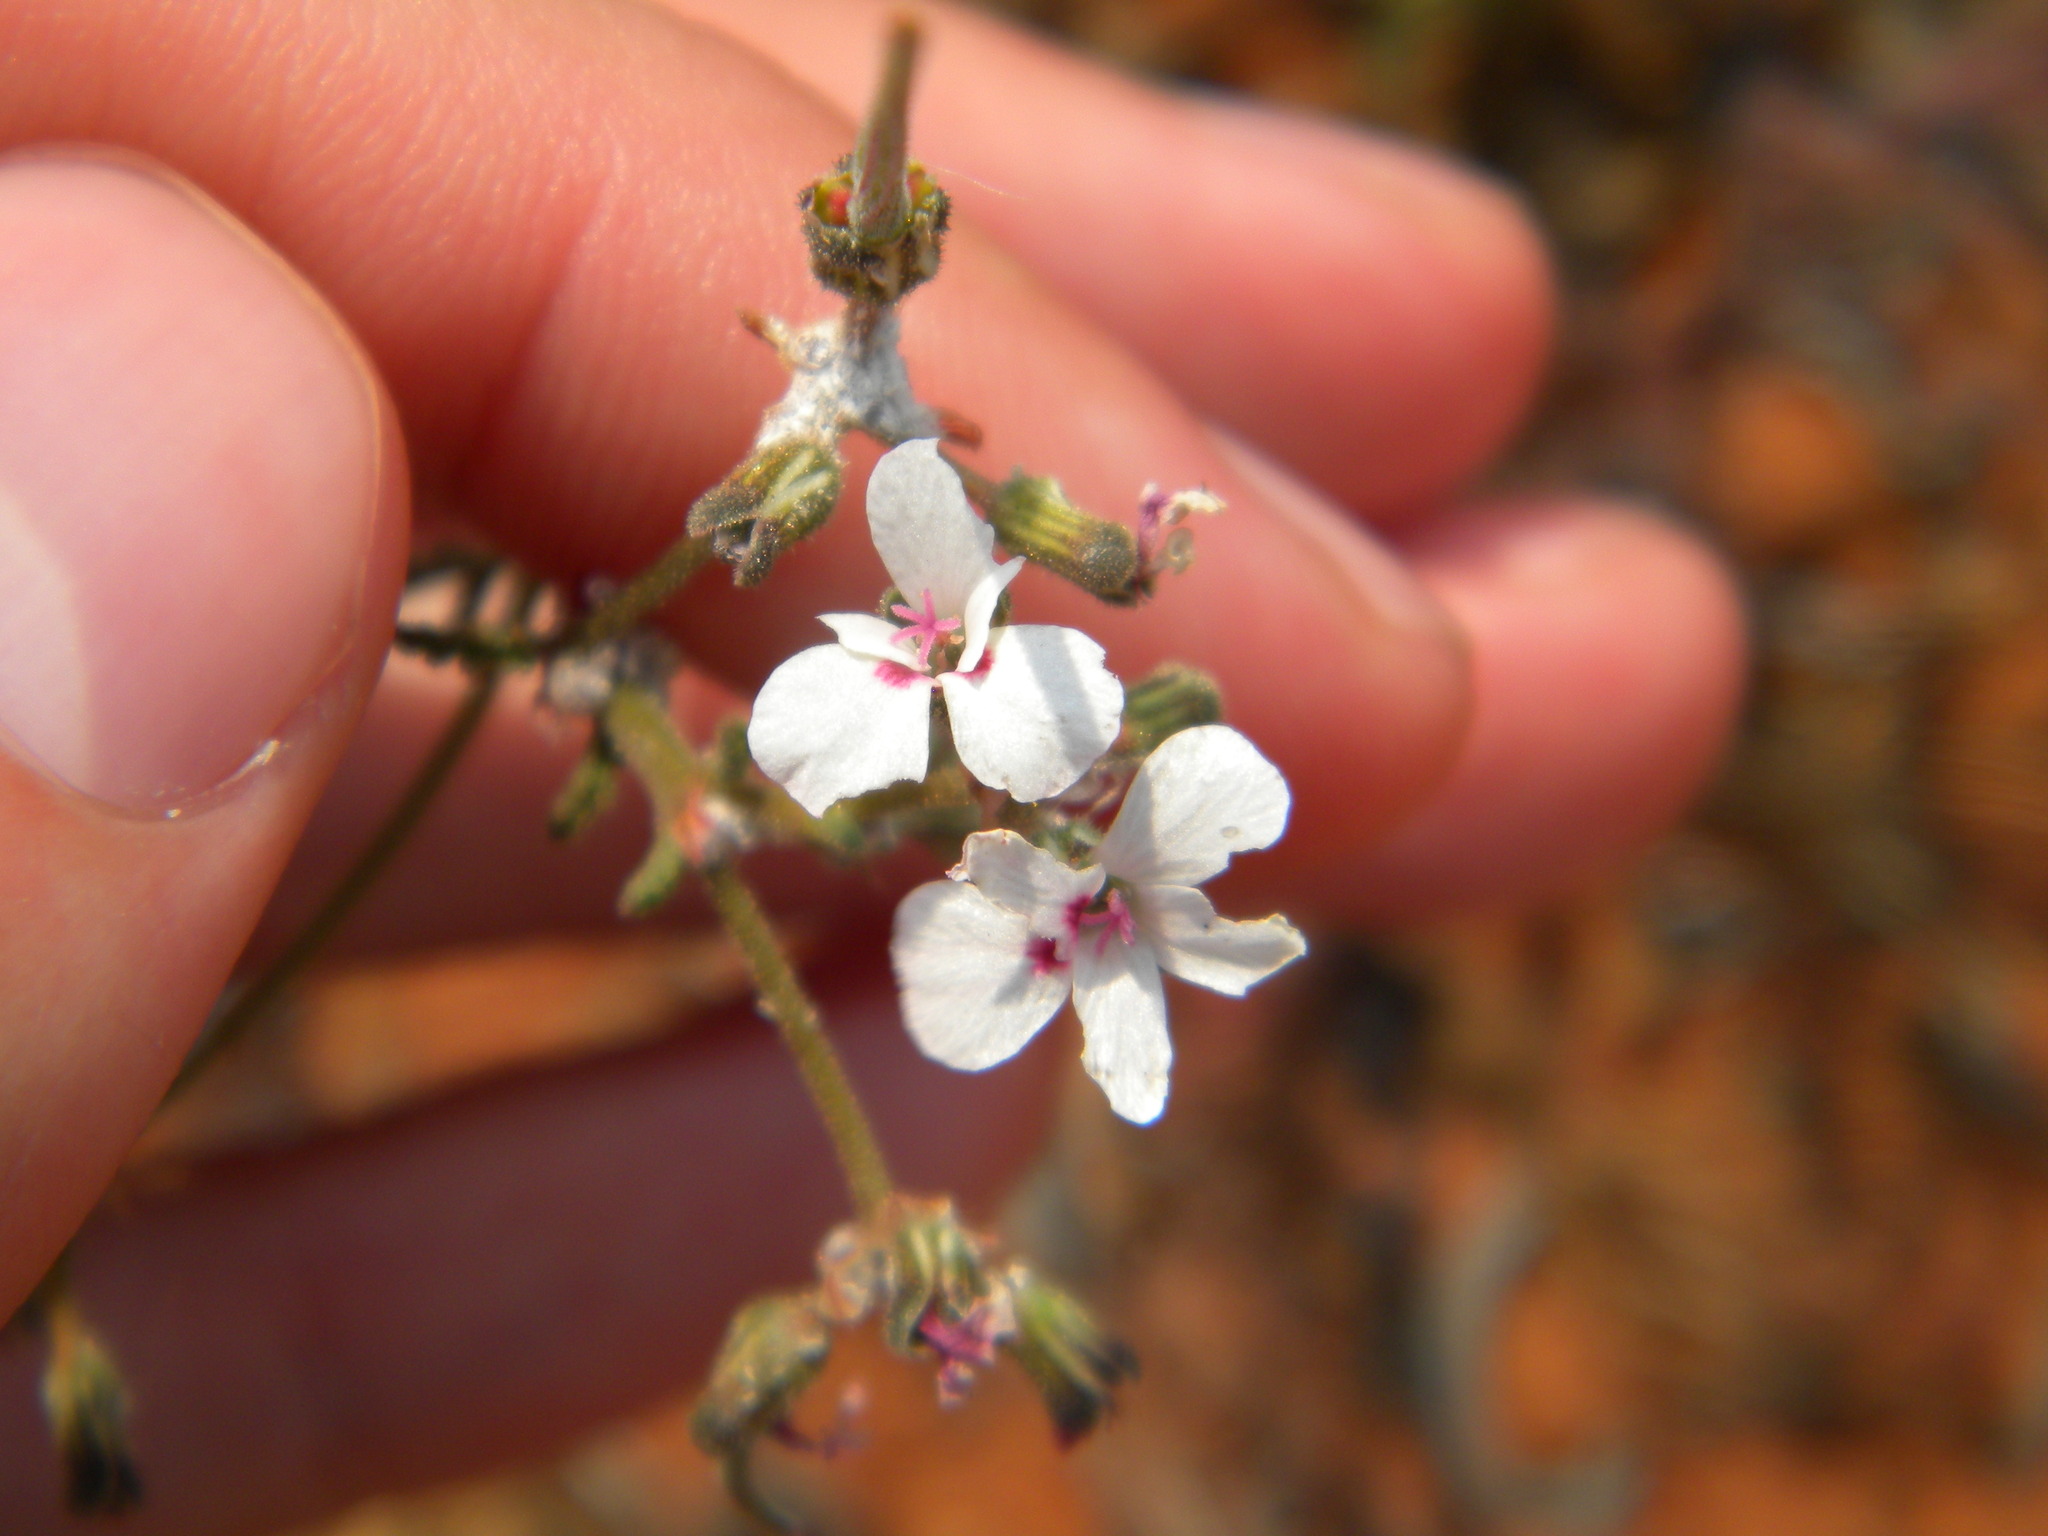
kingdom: Plantae
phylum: Tracheophyta
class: Magnoliopsida
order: Geraniales
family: Geraniaceae
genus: Pelargonium
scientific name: Pelargonium senecioides
